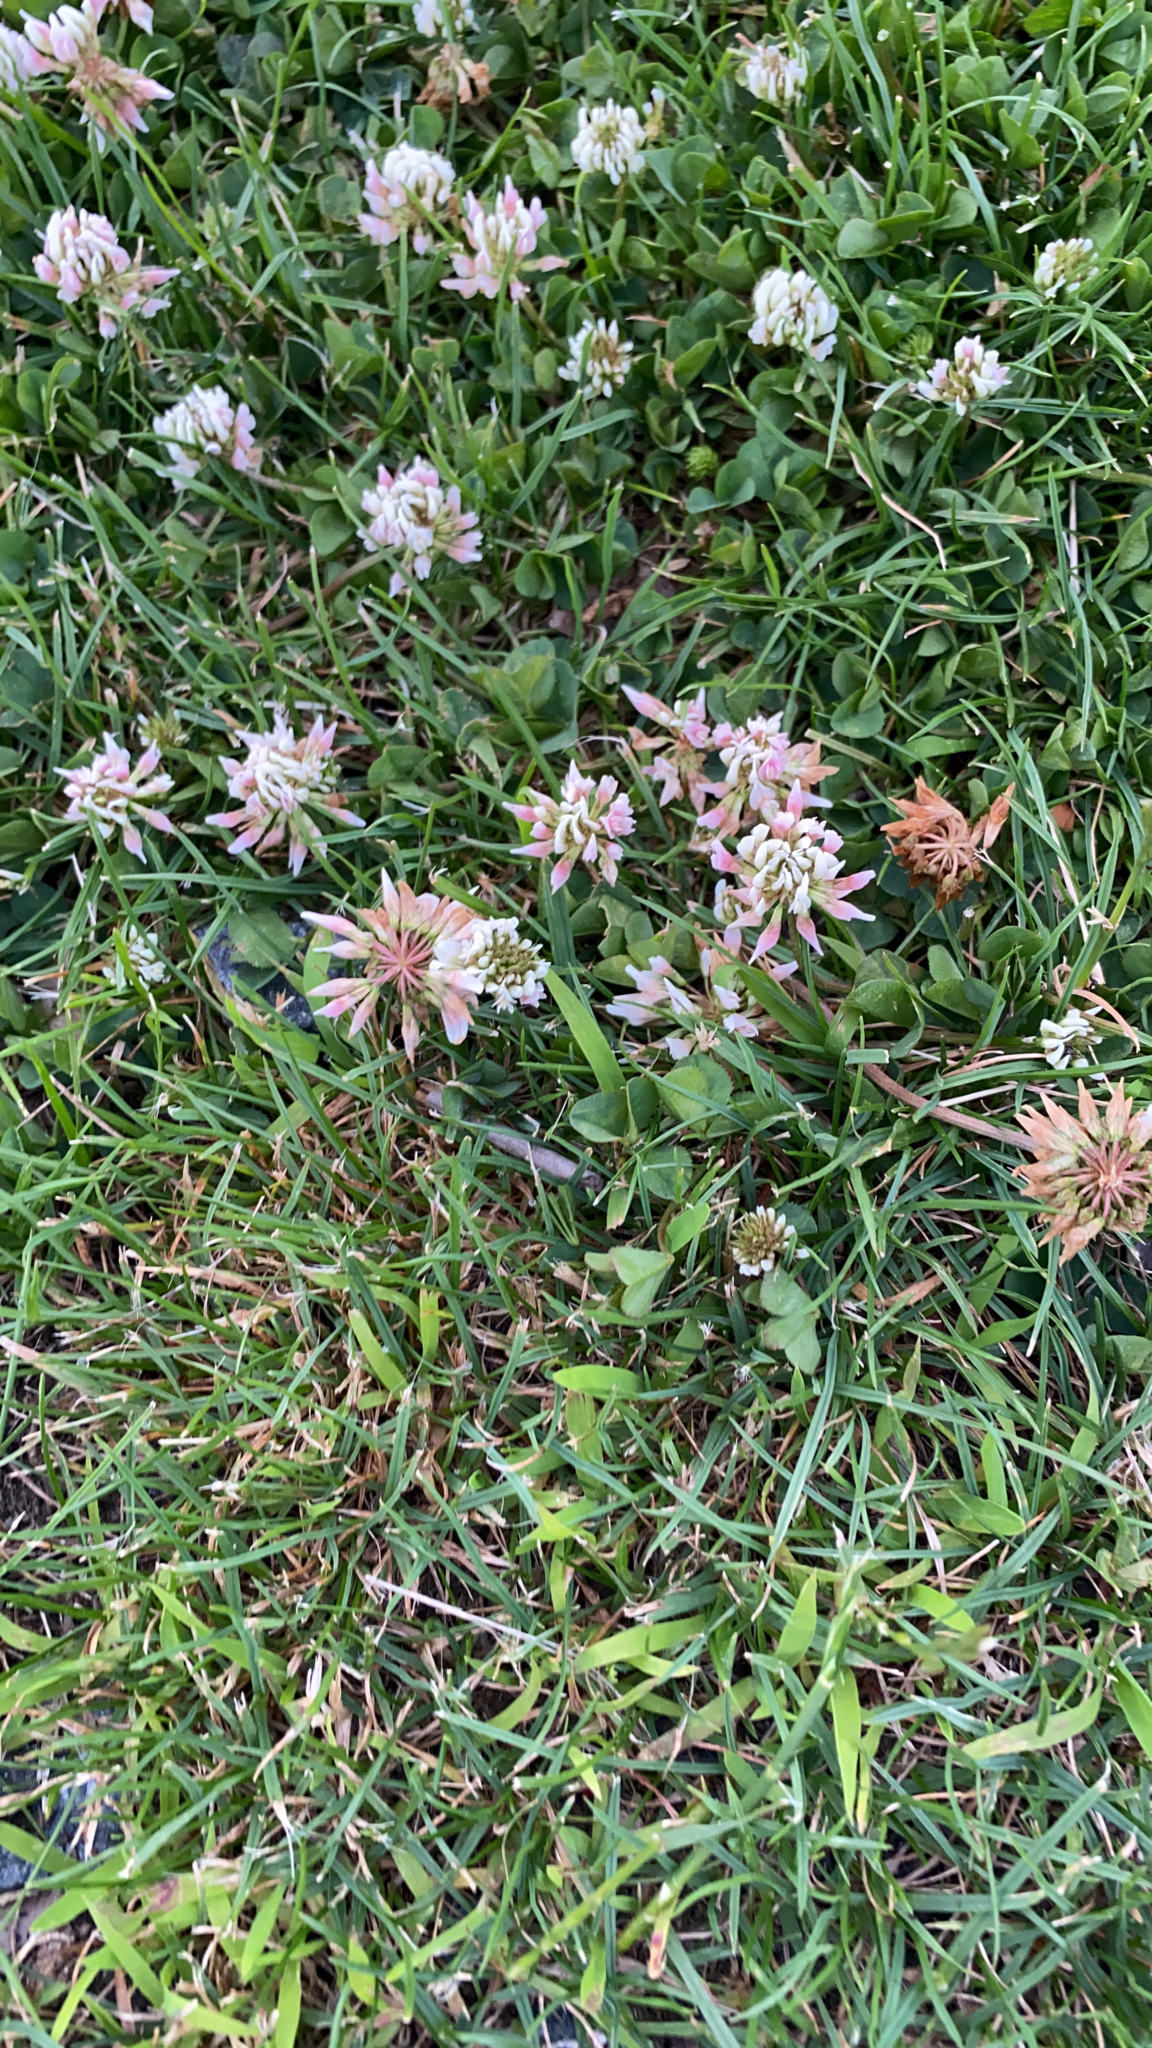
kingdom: Plantae
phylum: Tracheophyta
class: Magnoliopsida
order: Fabales
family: Fabaceae
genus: Trifolium
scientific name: Trifolium repens
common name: White clover
